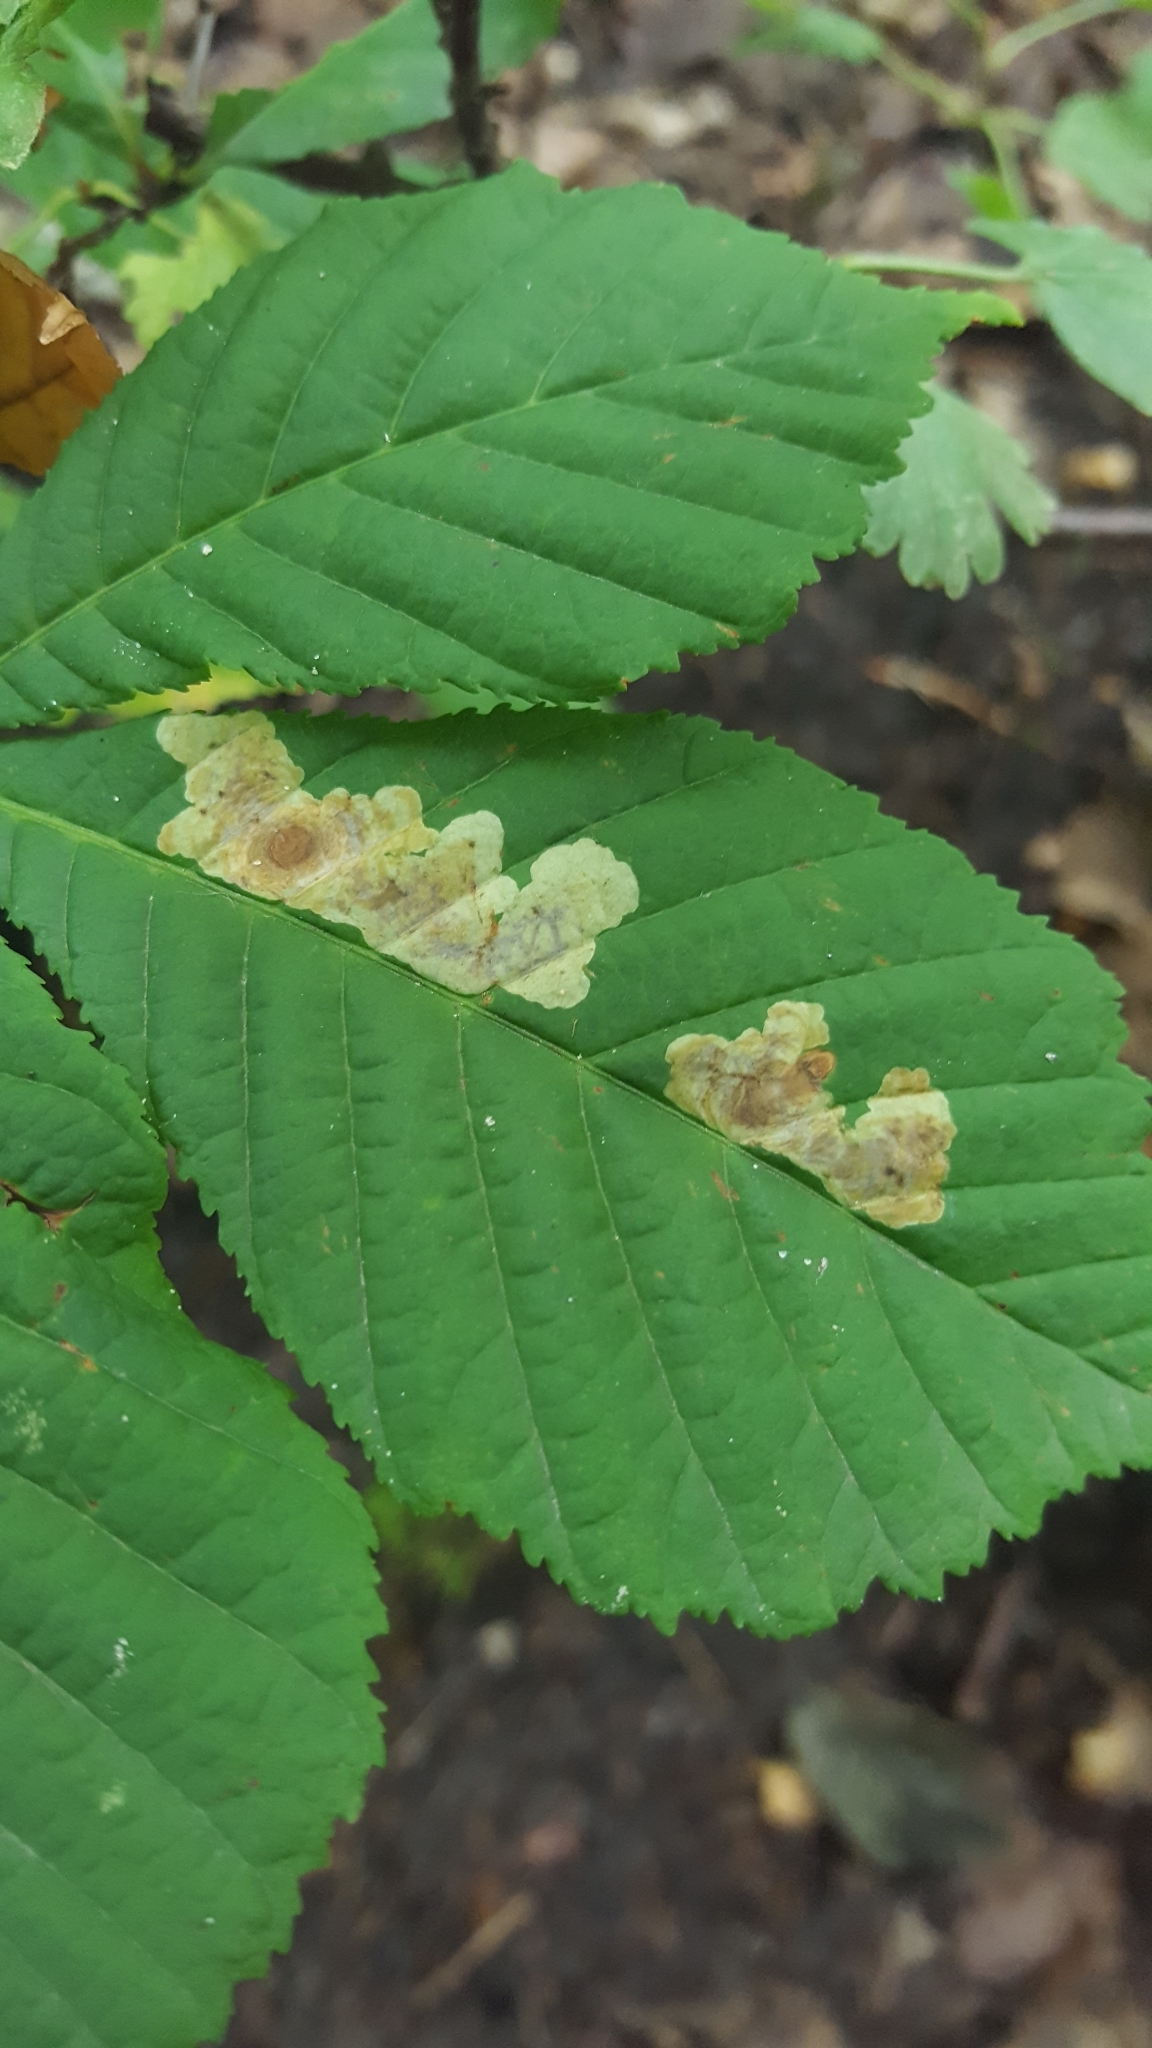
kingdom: Animalia
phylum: Arthropoda
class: Insecta
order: Lepidoptera
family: Gracillariidae
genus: Cameraria
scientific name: Cameraria ohridella
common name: Horse-chestnut leaf-miner
